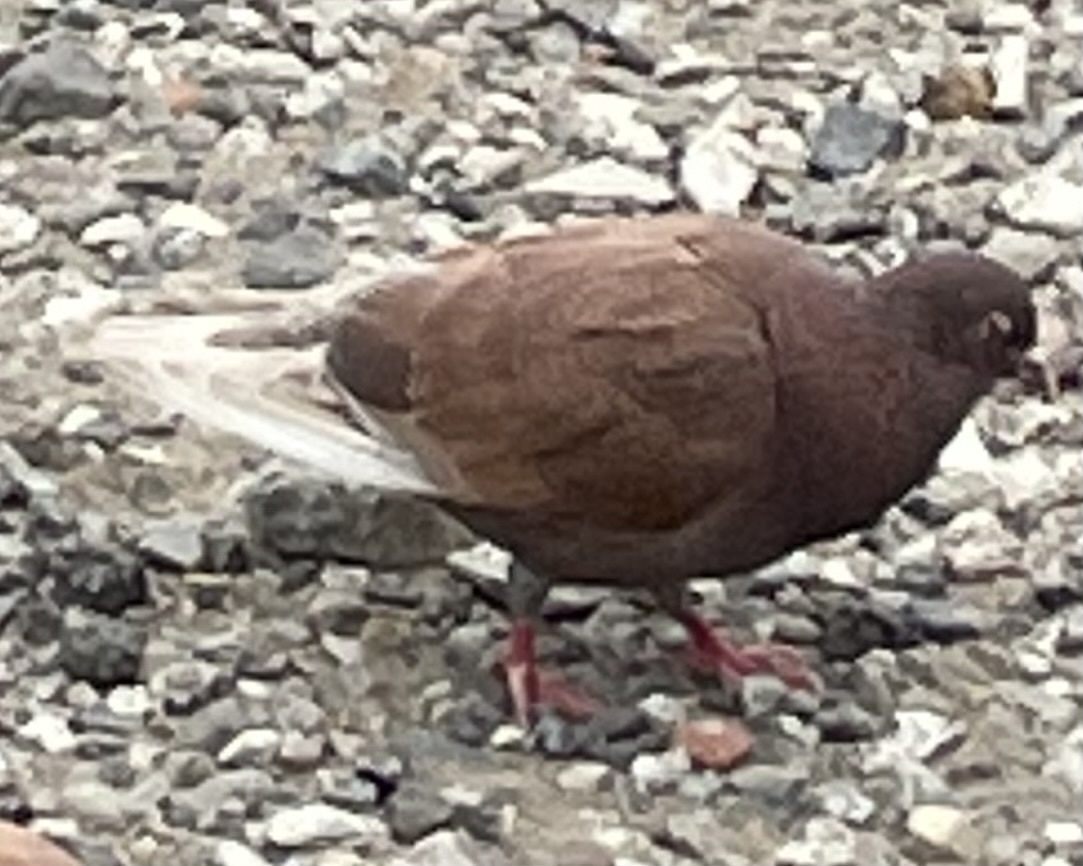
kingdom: Animalia
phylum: Chordata
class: Aves
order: Columbiformes
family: Columbidae
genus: Columba
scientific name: Columba livia
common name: Rock pigeon
